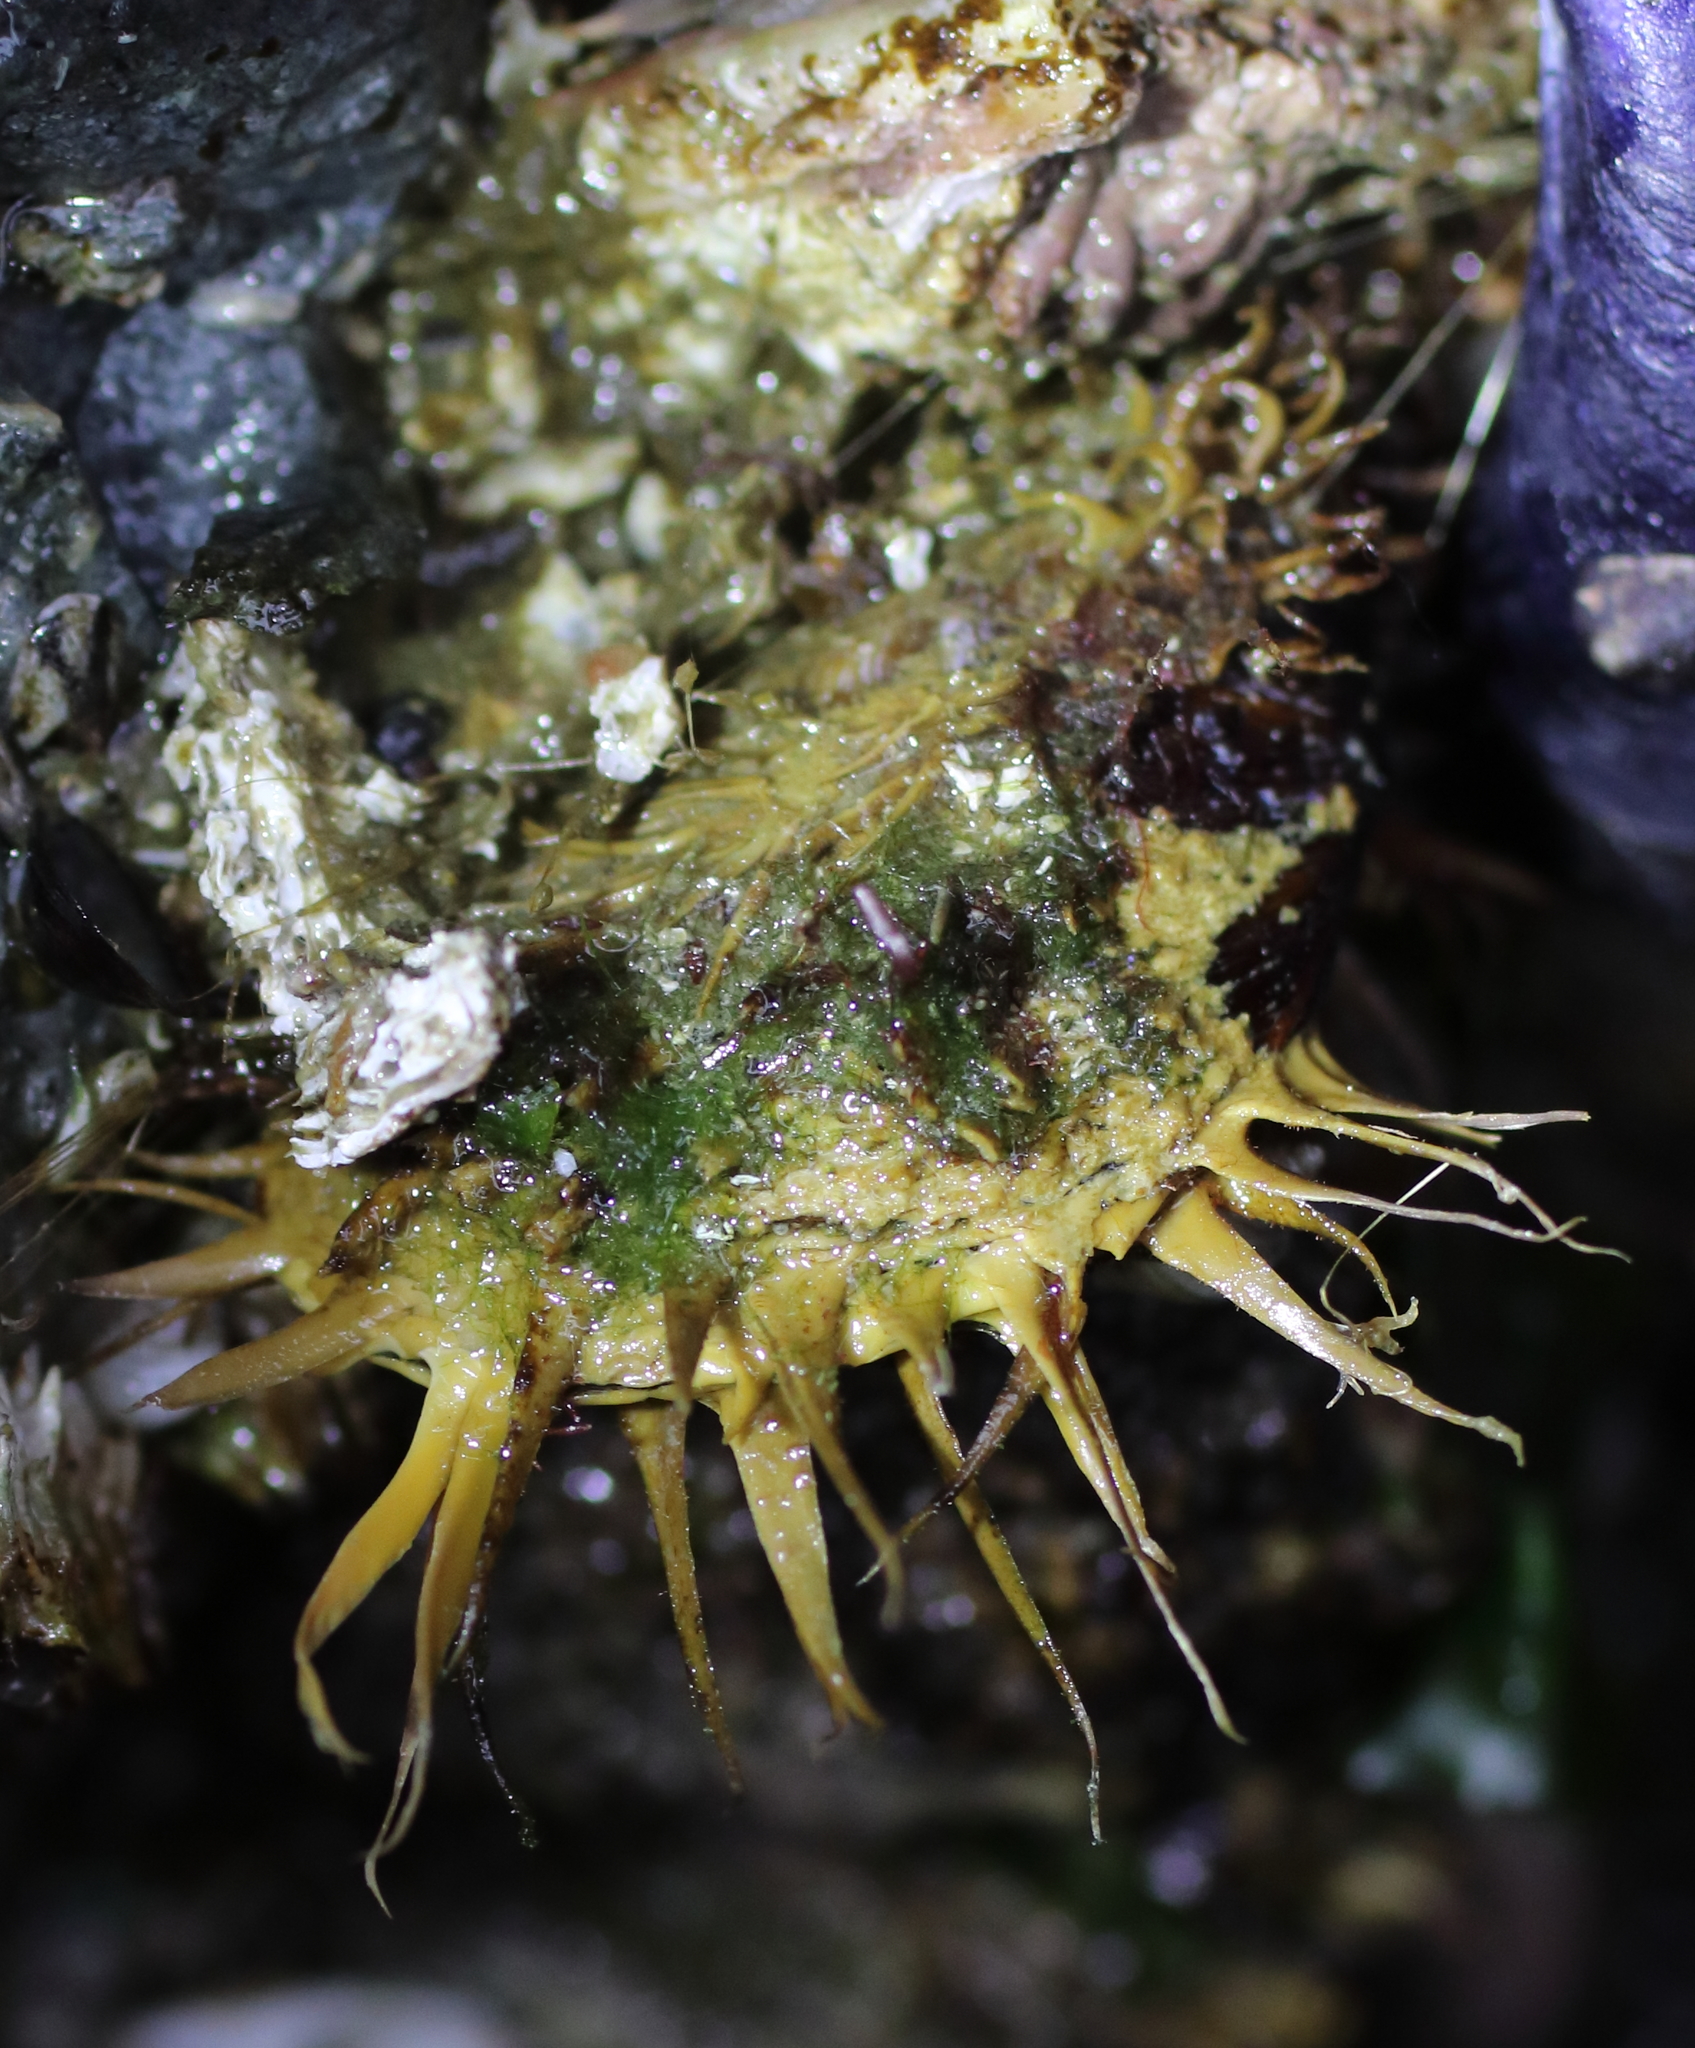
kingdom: Animalia
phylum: Mollusca
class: Bivalvia
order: Mytilida
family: Mytilidae
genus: Modiolus
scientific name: Modiolus modiolus
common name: Horse-mussel
